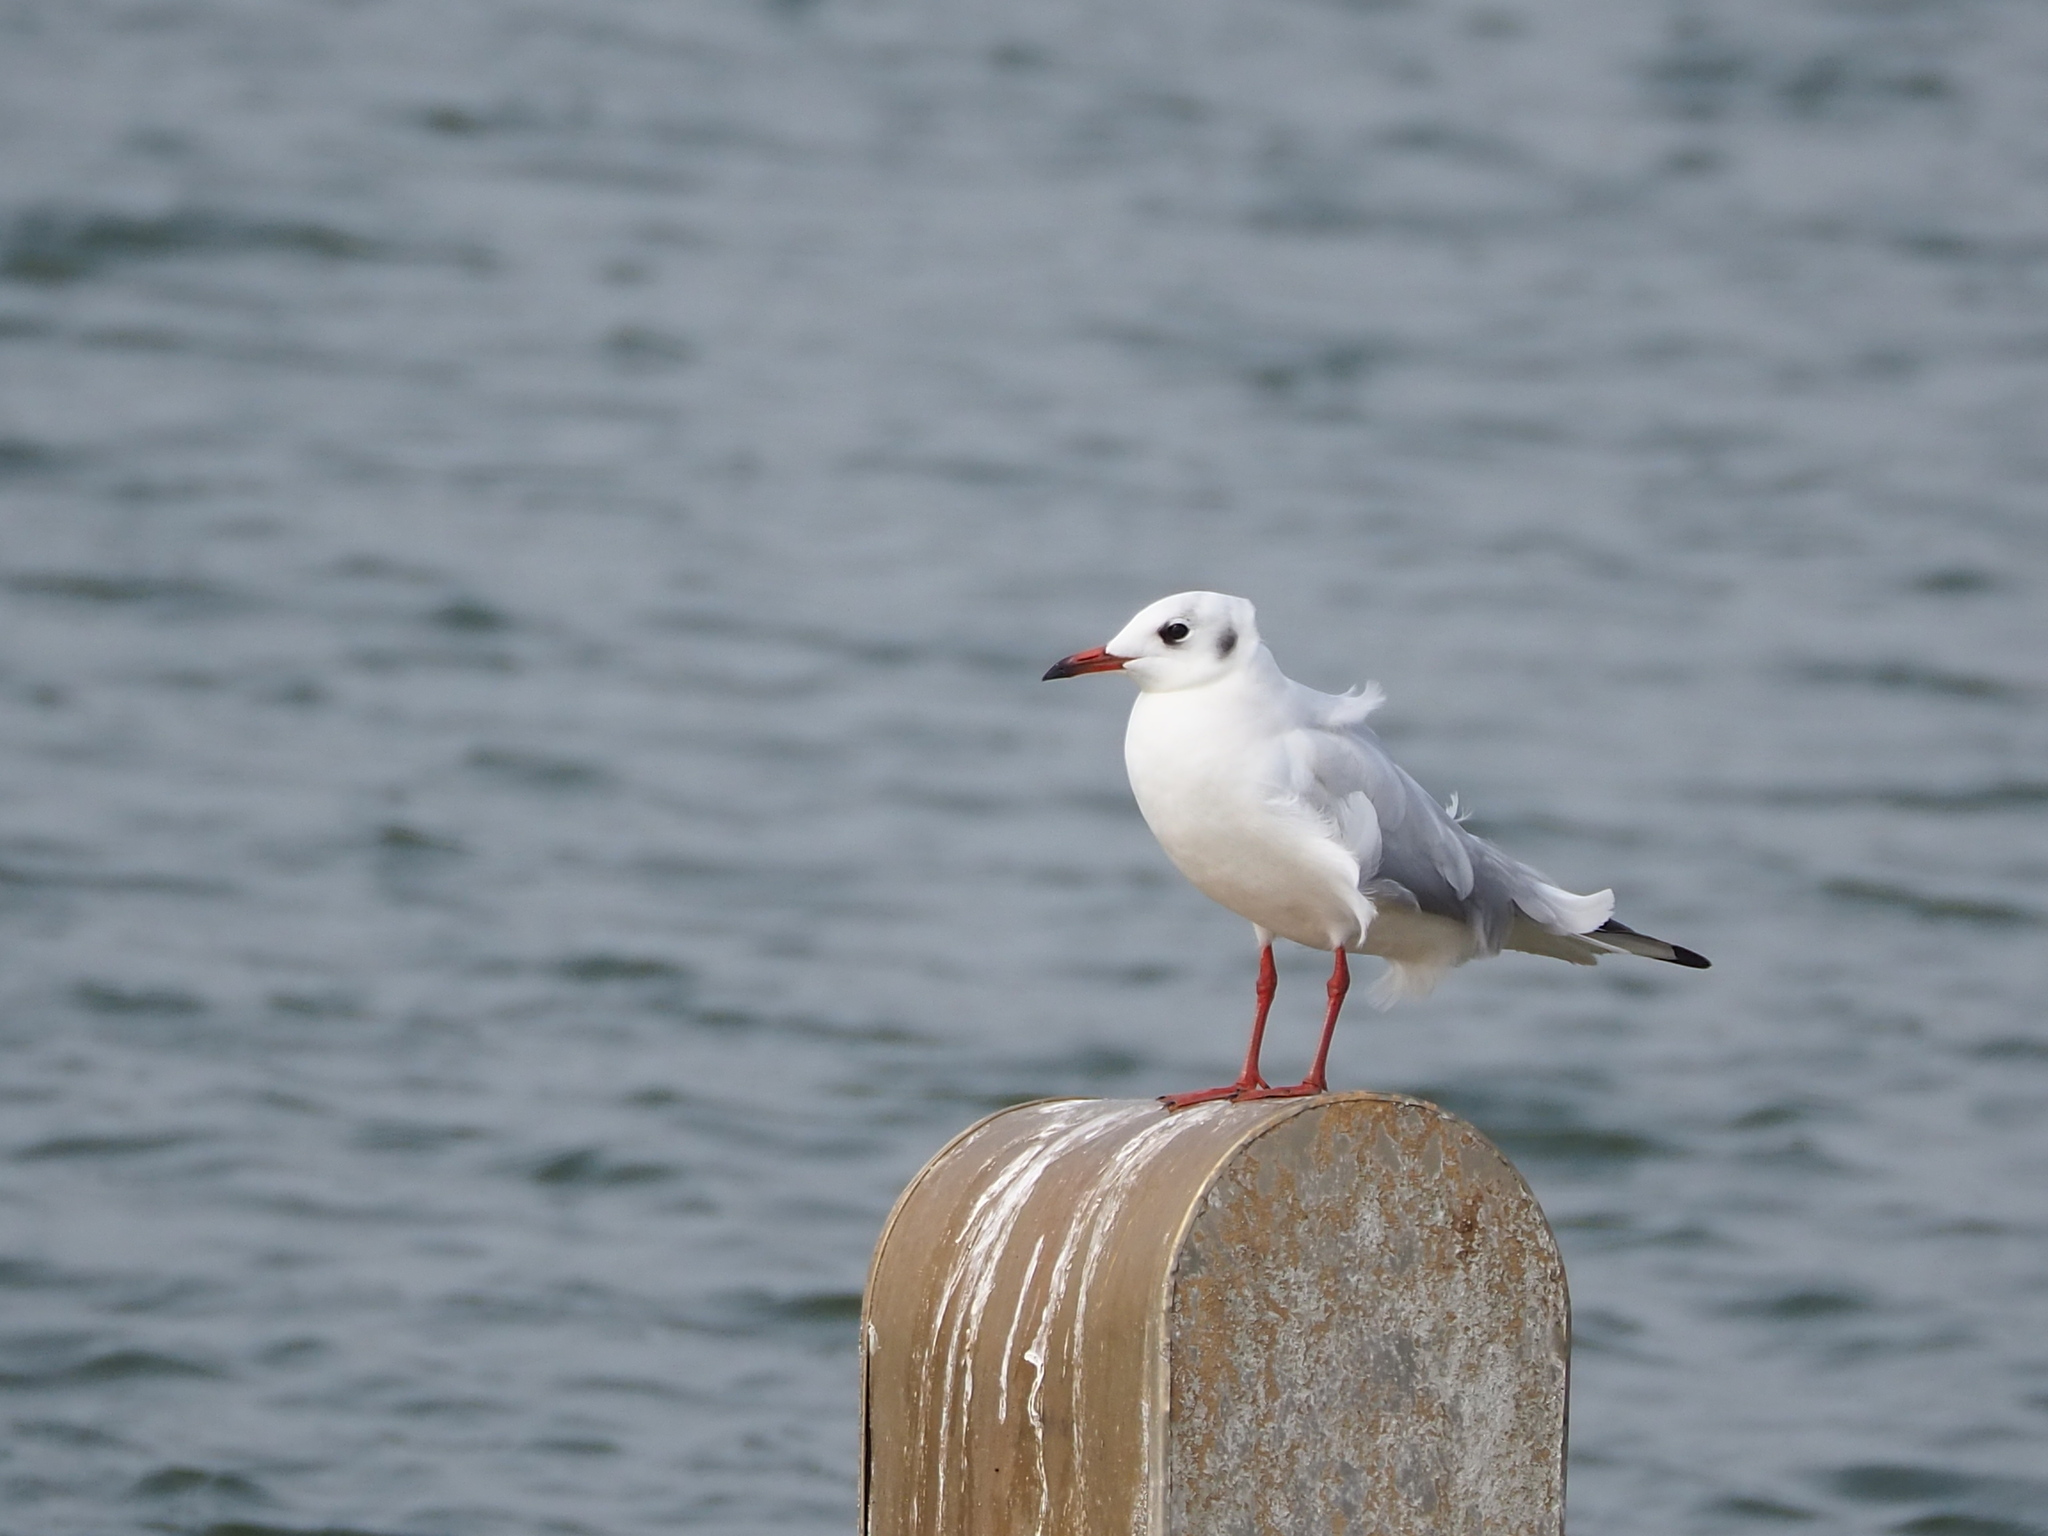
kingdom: Animalia
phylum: Chordata
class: Aves
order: Charadriiformes
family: Laridae
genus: Chroicocephalus
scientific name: Chroicocephalus ridibundus
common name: Black-headed gull
